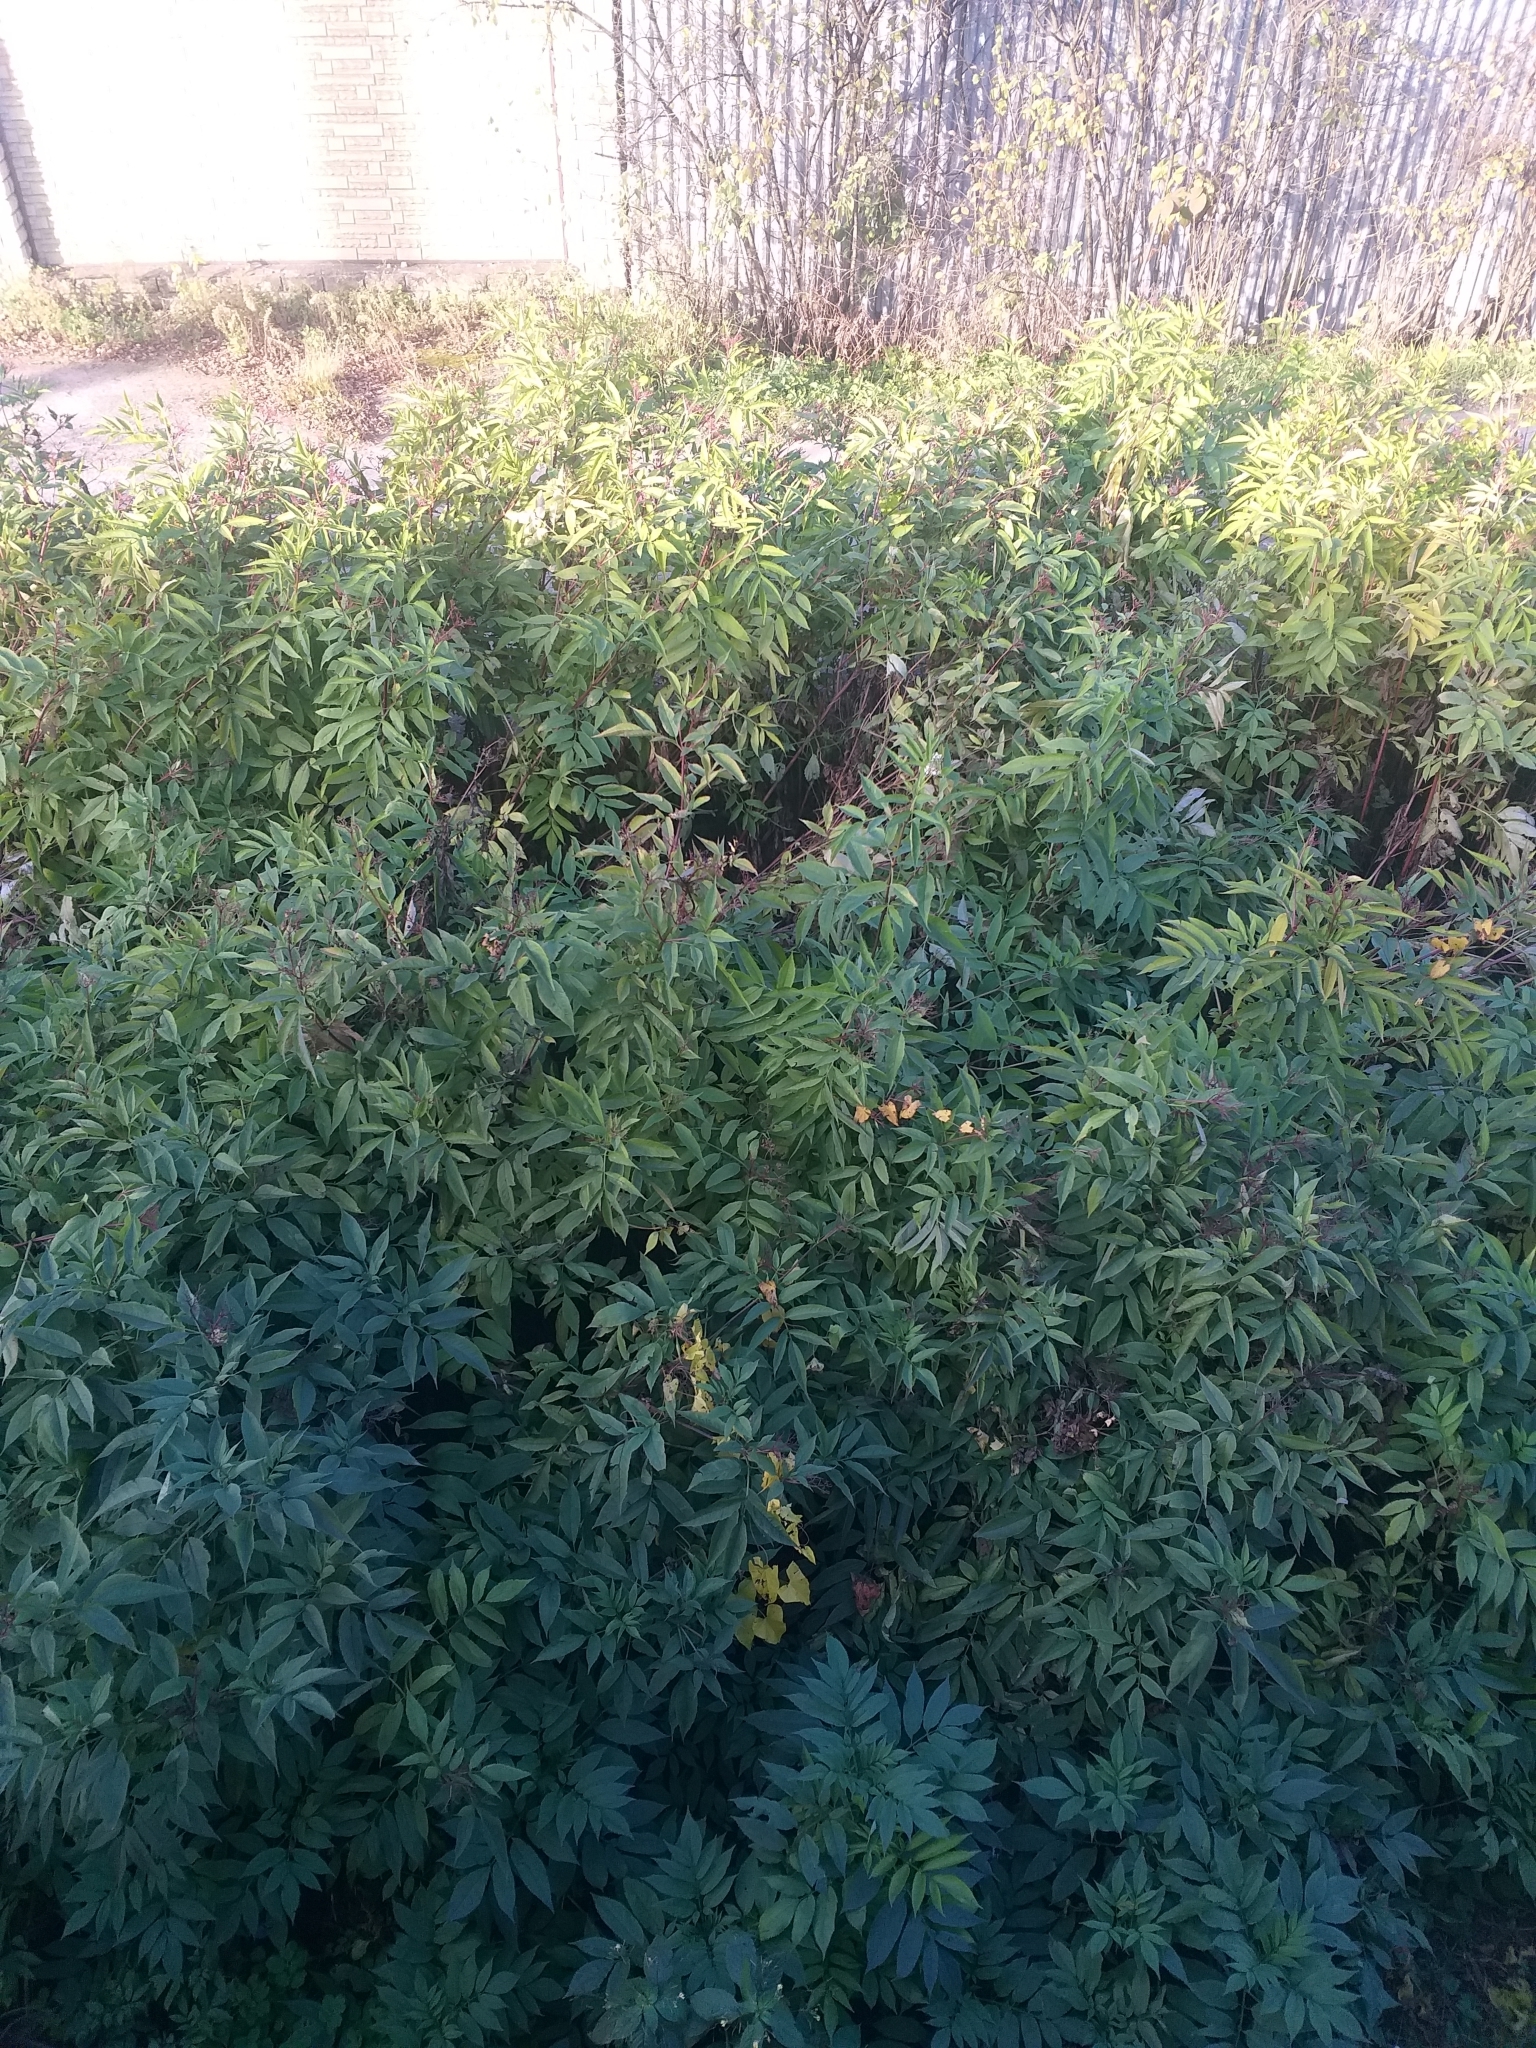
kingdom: Plantae
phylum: Tracheophyta
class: Magnoliopsida
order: Dipsacales
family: Viburnaceae
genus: Sambucus
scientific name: Sambucus ebulus
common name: Dwarf elder
